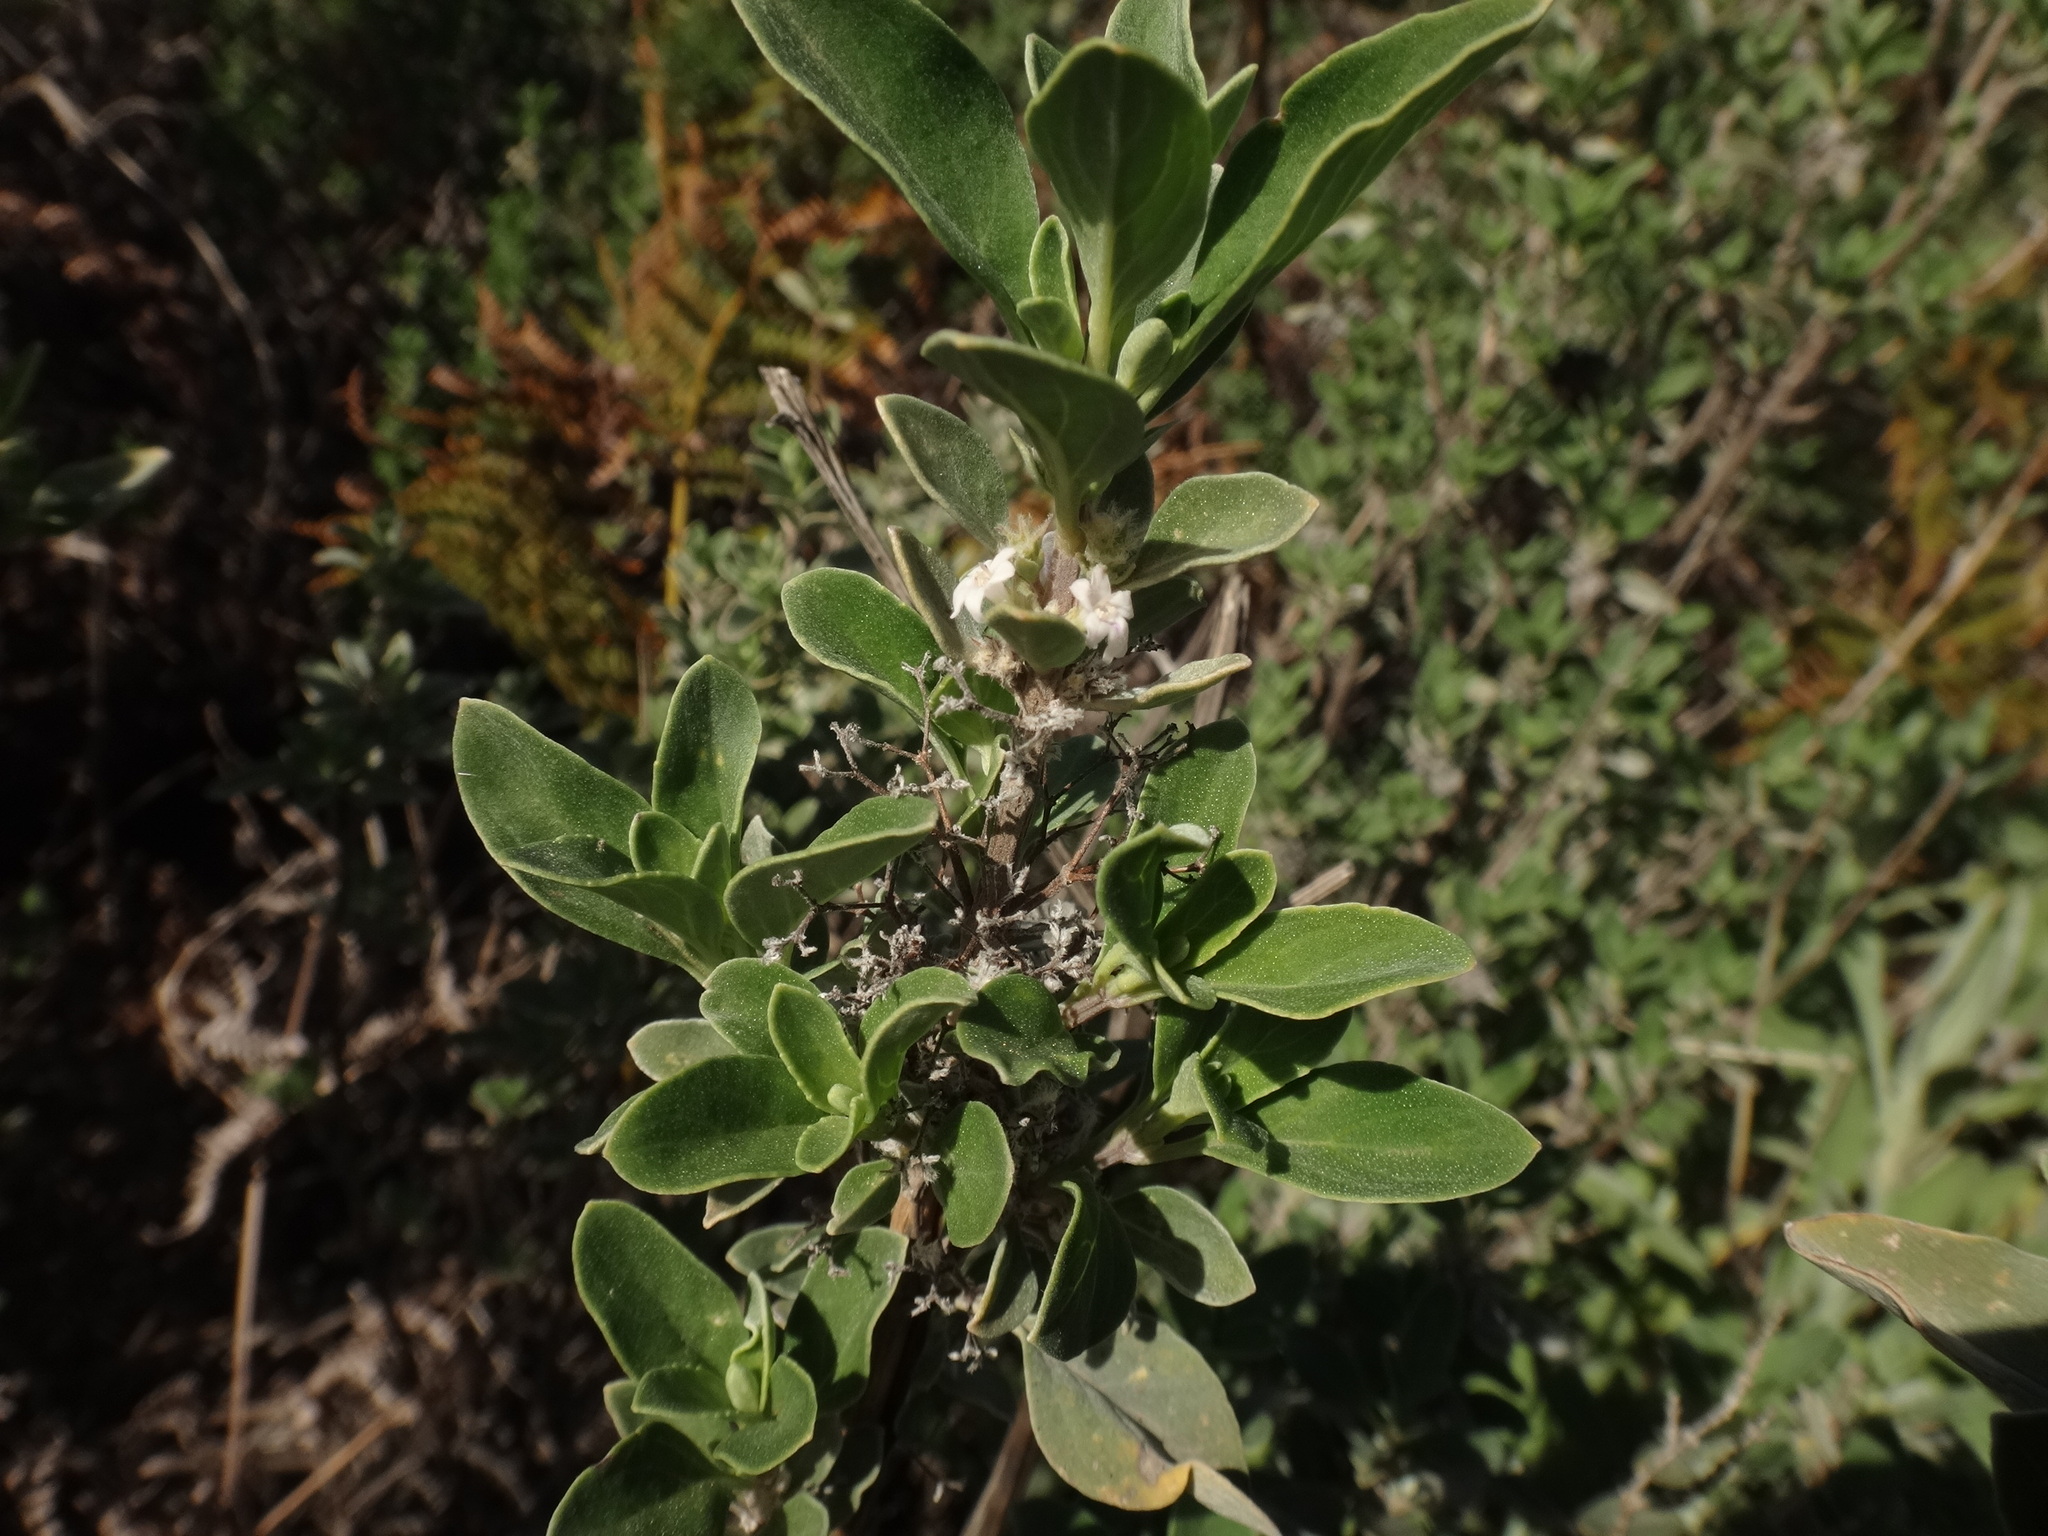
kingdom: Plantae
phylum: Tracheophyta
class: Magnoliopsida
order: Lamiales
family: Lamiaceae
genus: Bystropogon
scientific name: Bystropogon origanifolius
